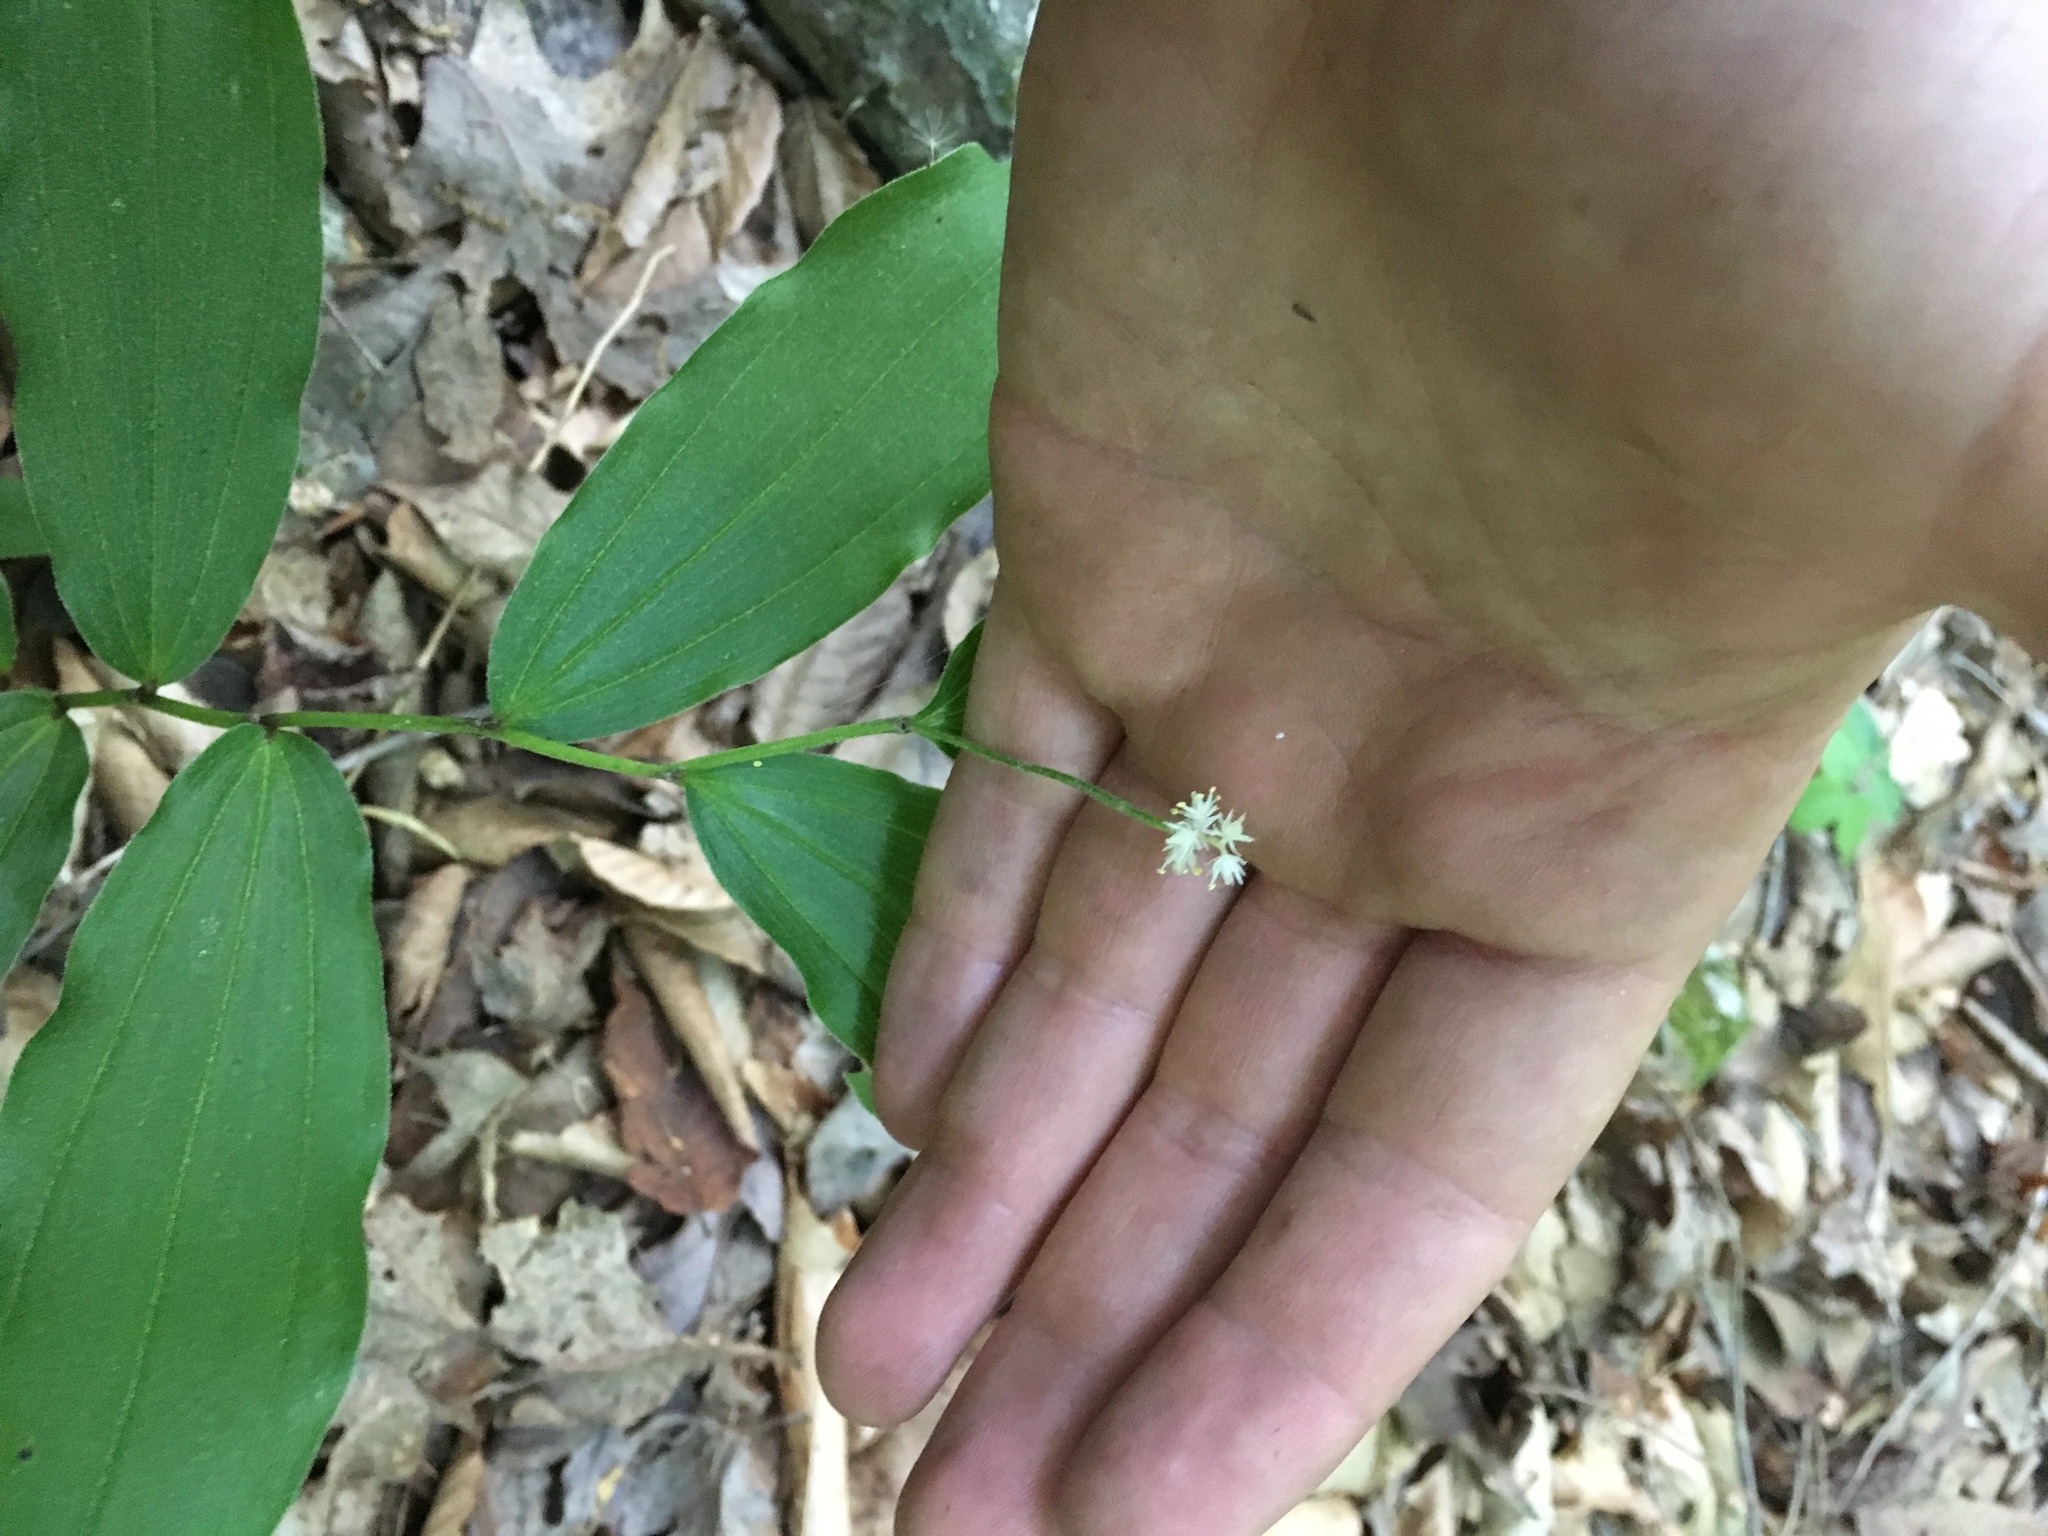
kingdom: Plantae
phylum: Tracheophyta
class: Liliopsida
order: Asparagales
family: Asparagaceae
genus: Maianthemum
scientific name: Maianthemum racemosum
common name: False spikenard
